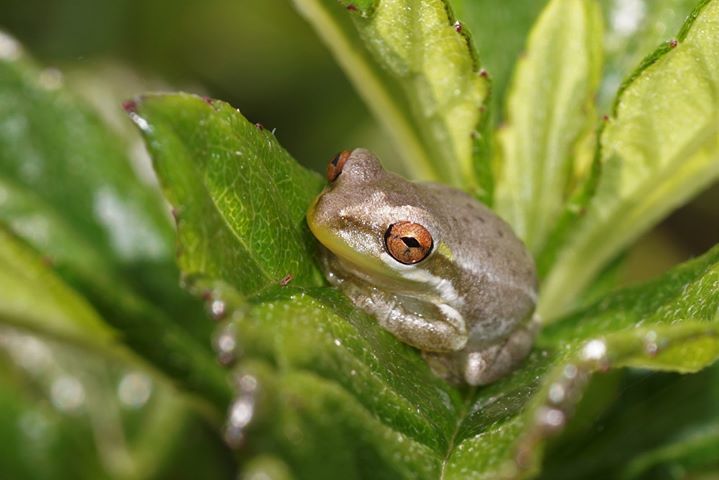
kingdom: Animalia
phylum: Chordata
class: Amphibia
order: Anura
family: Hylidae
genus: Osteopilus
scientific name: Osteopilus septentrionalis
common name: Cuban treefrog
